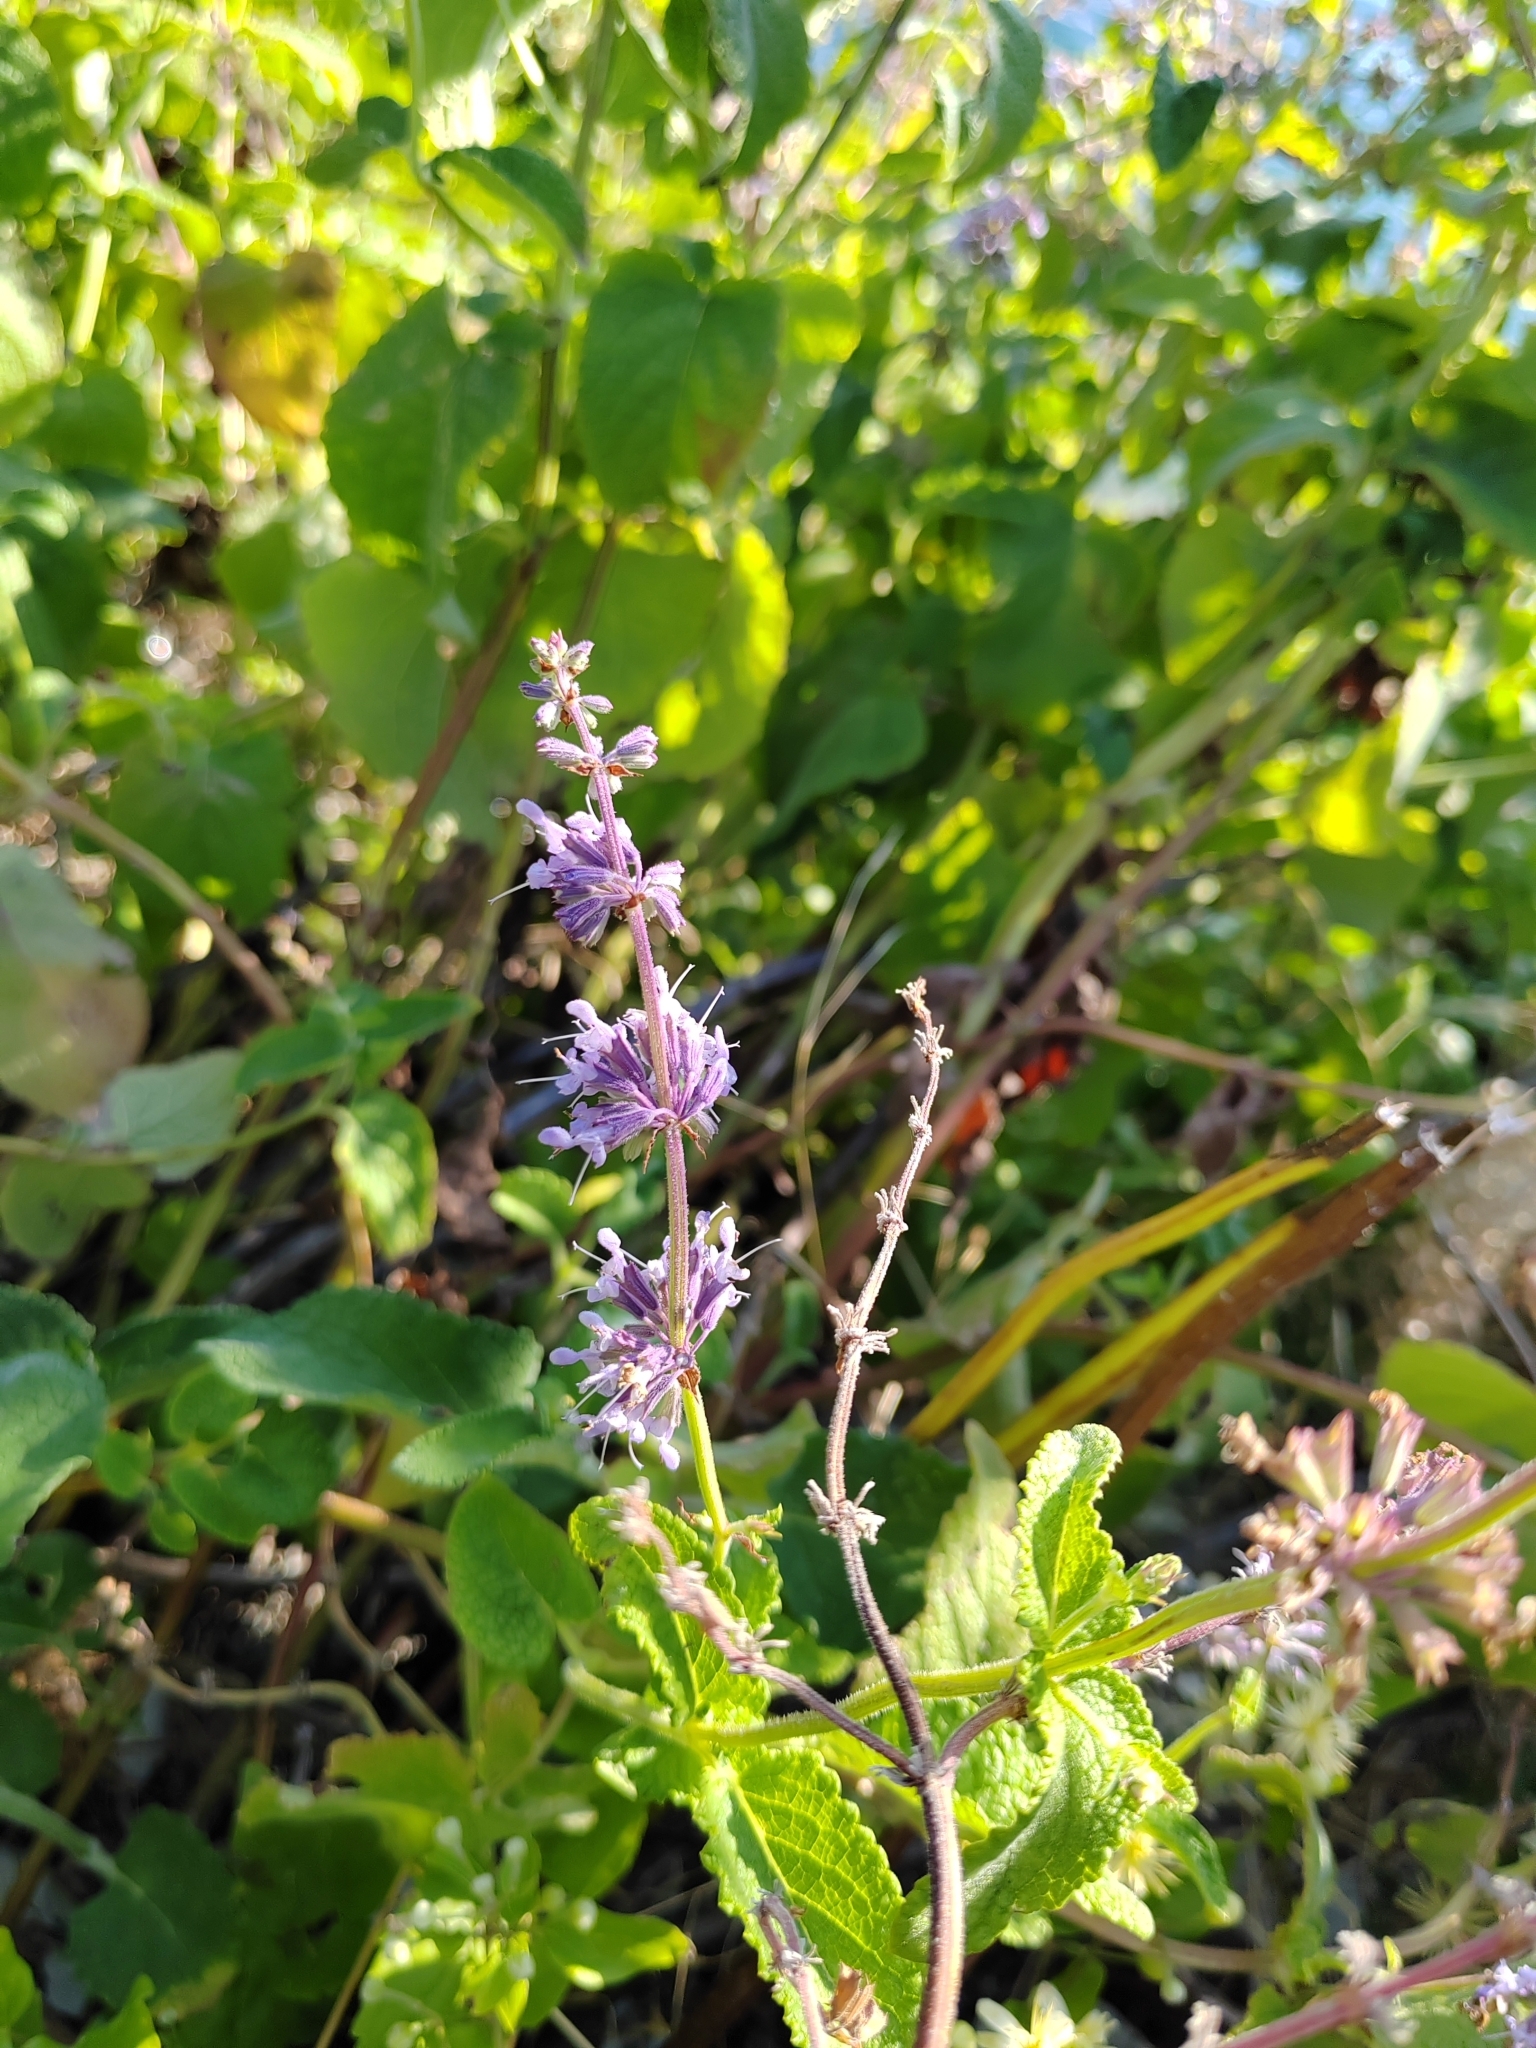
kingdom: Plantae
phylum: Tracheophyta
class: Magnoliopsida
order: Lamiales
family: Lamiaceae
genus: Salvia
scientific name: Salvia verticillata
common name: Whorled clary
